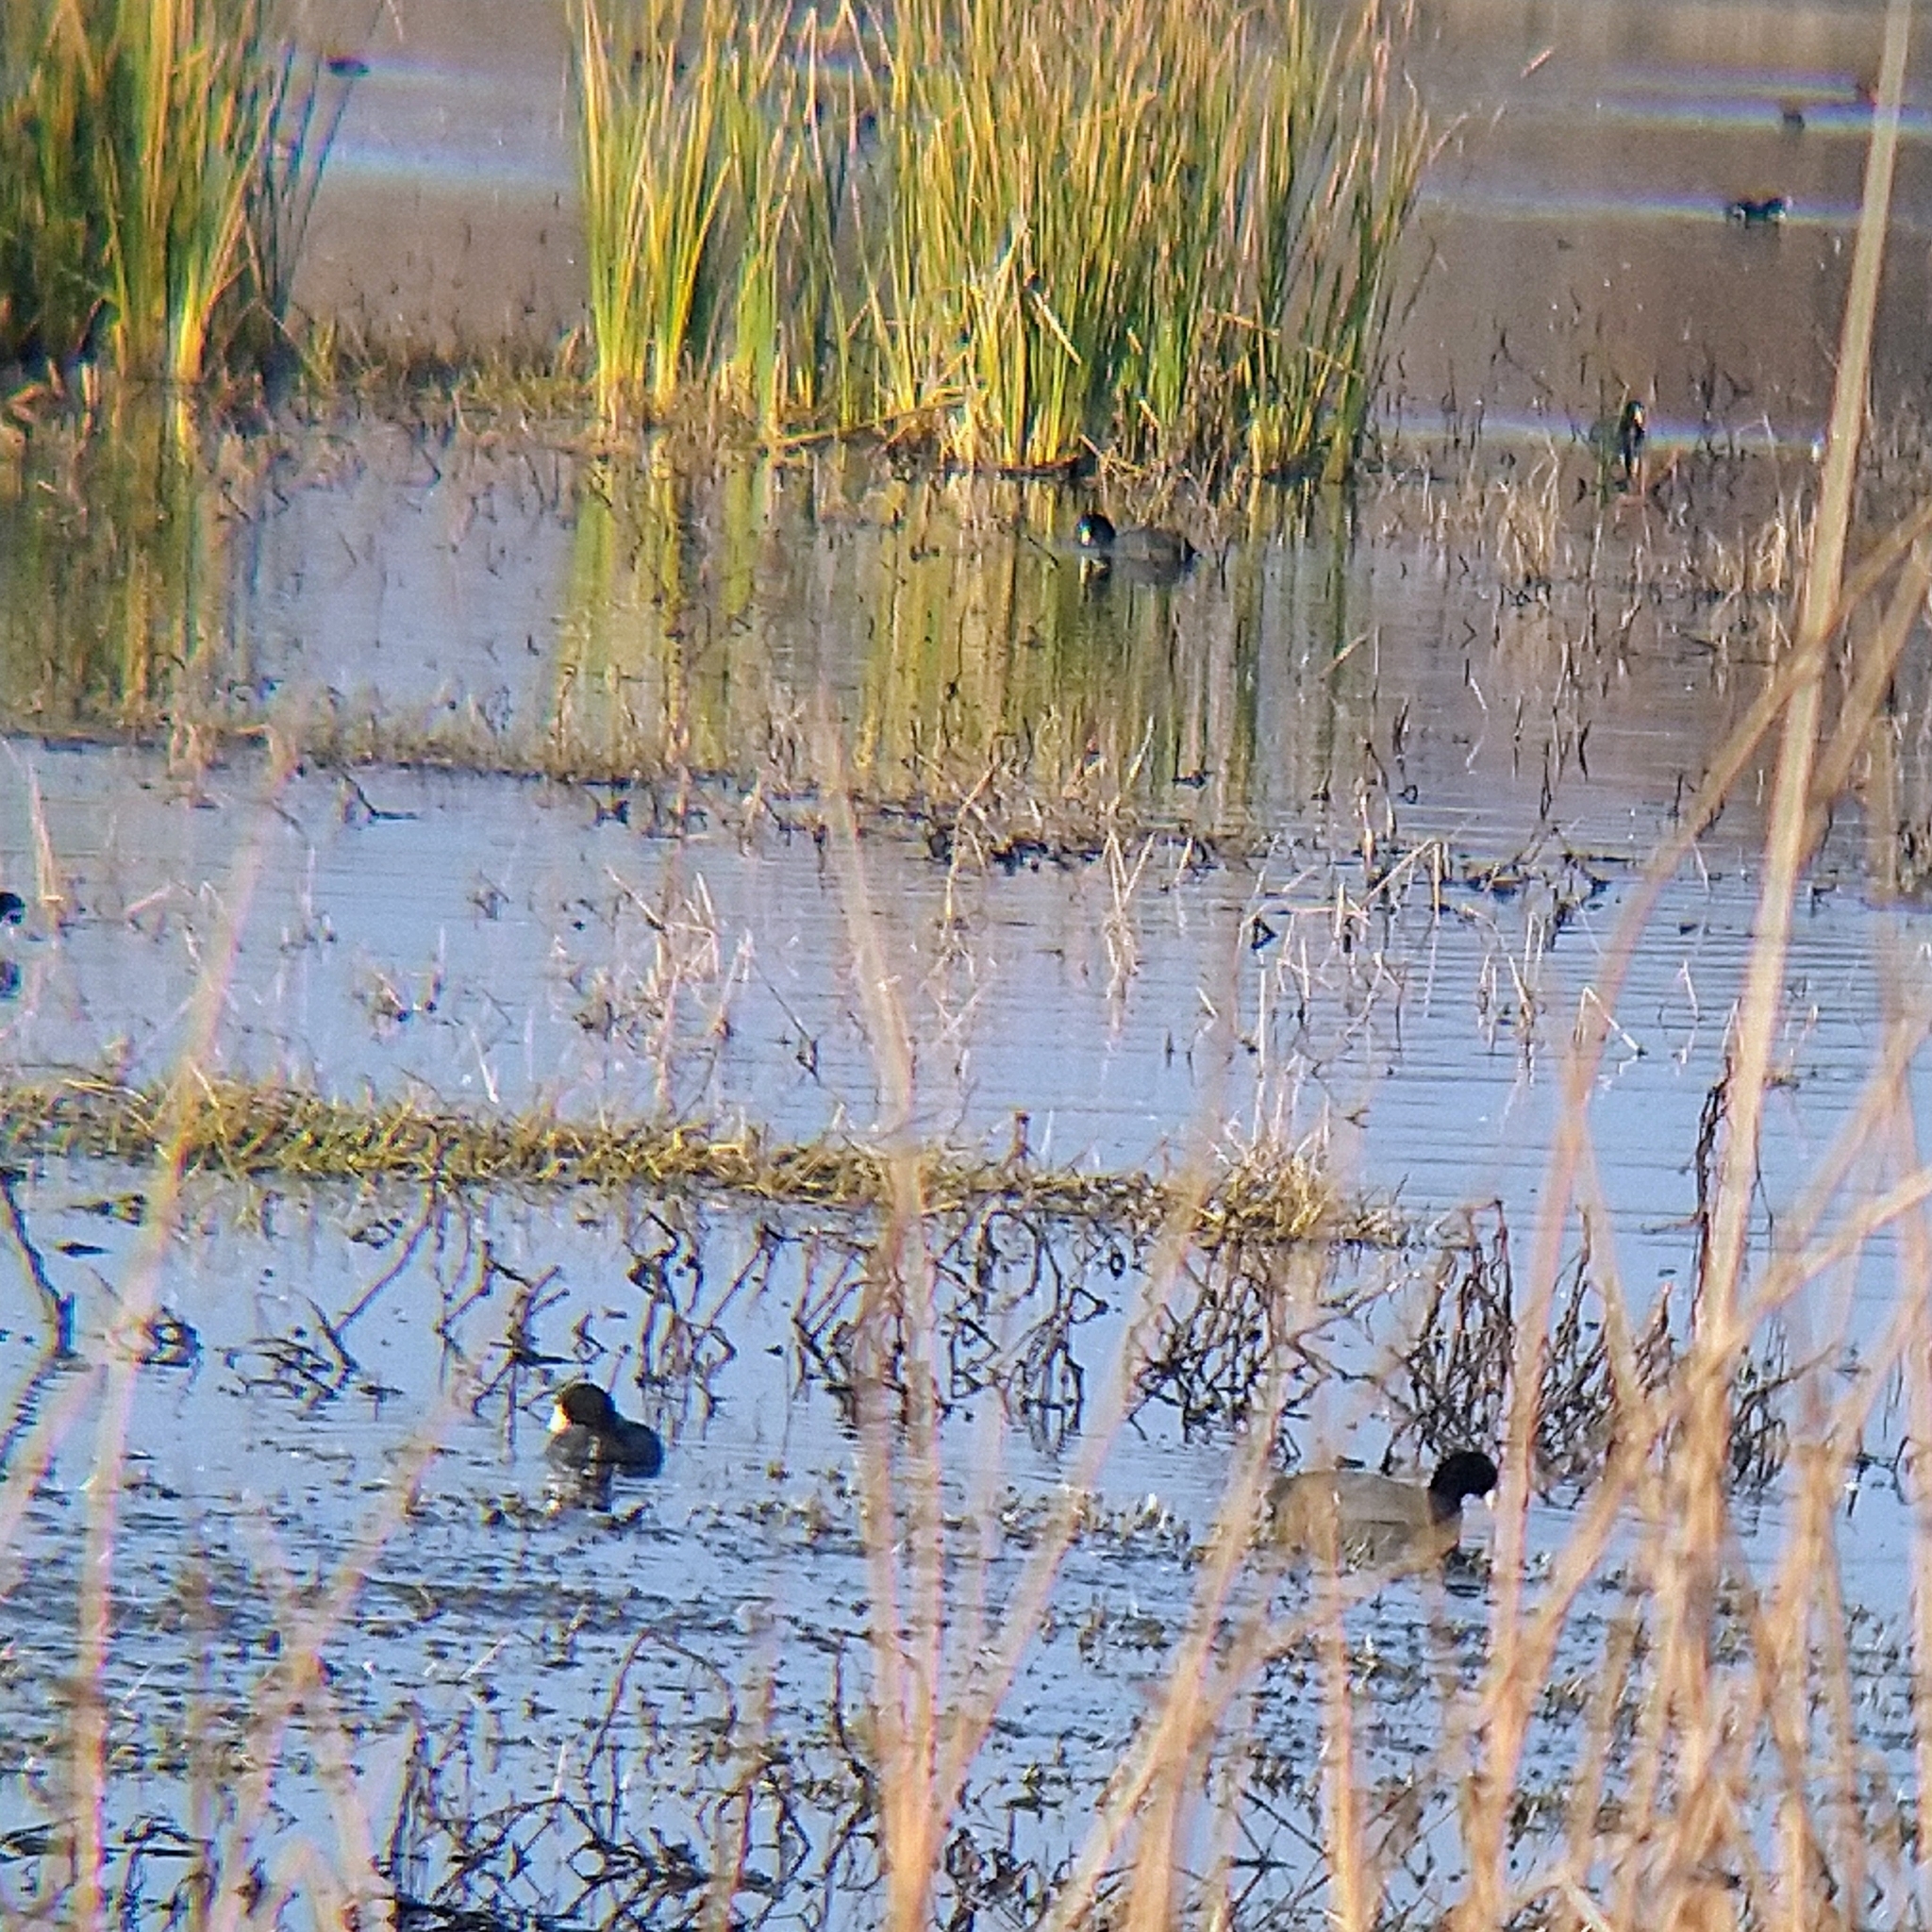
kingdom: Animalia
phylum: Chordata
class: Aves
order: Gruiformes
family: Rallidae
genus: Fulica
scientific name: Fulica americana
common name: American coot
